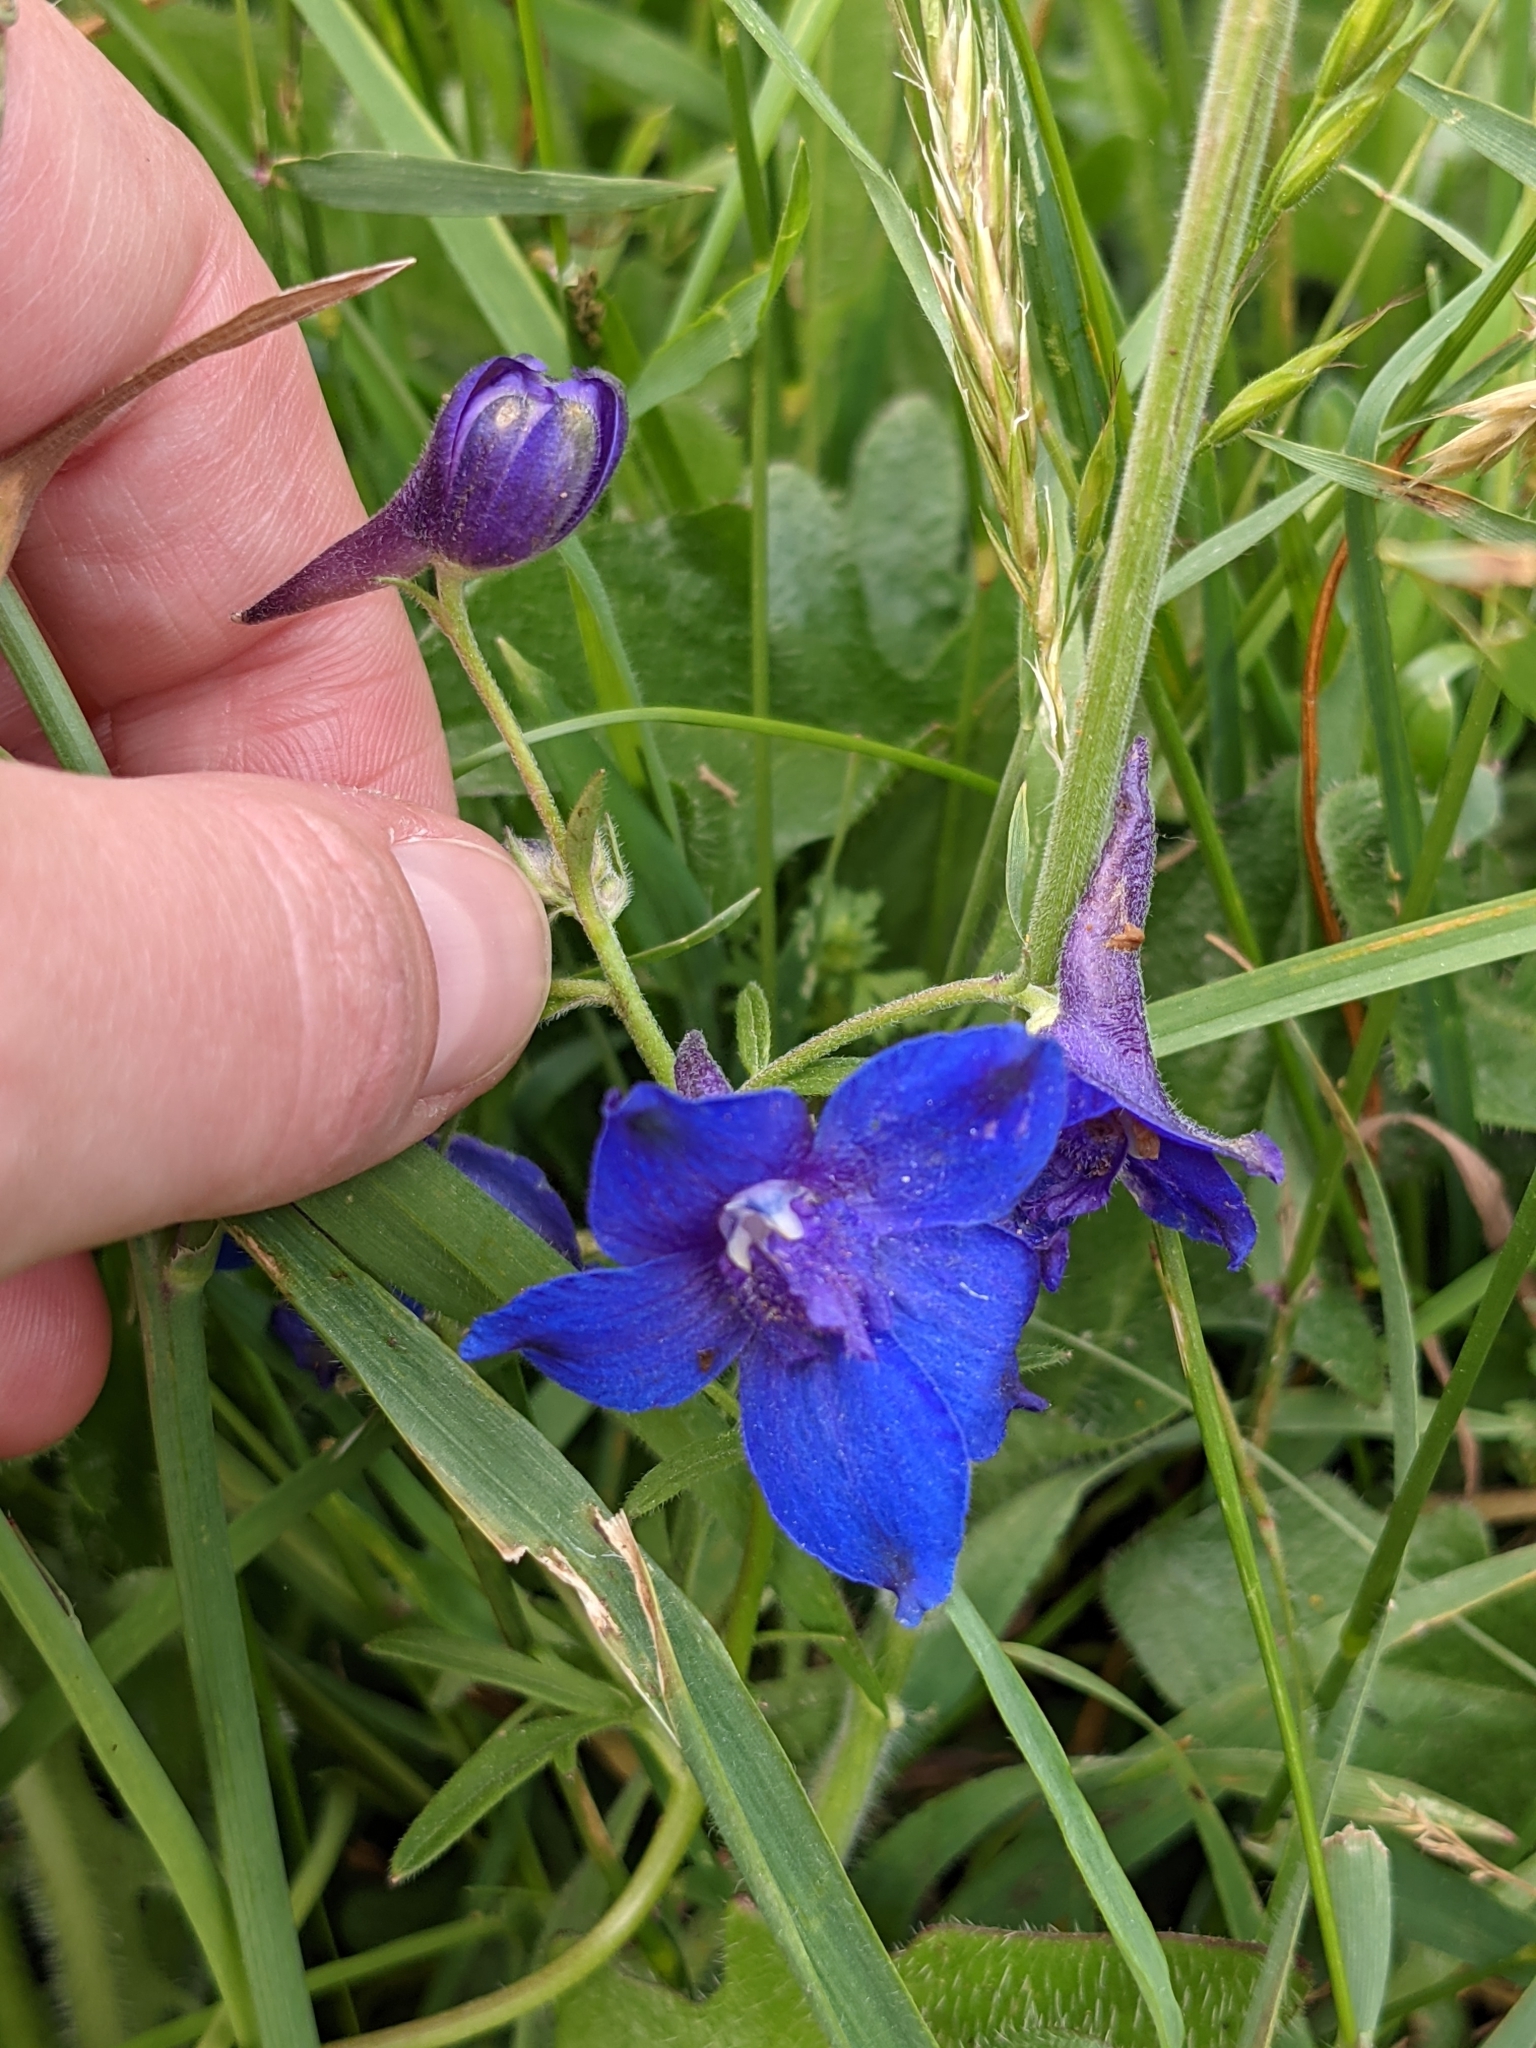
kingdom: Plantae
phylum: Tracheophyta
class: Magnoliopsida
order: Ranunculales
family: Ranunculaceae
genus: Delphinium
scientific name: Delphinium menziesii
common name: Menzies's larkspur
